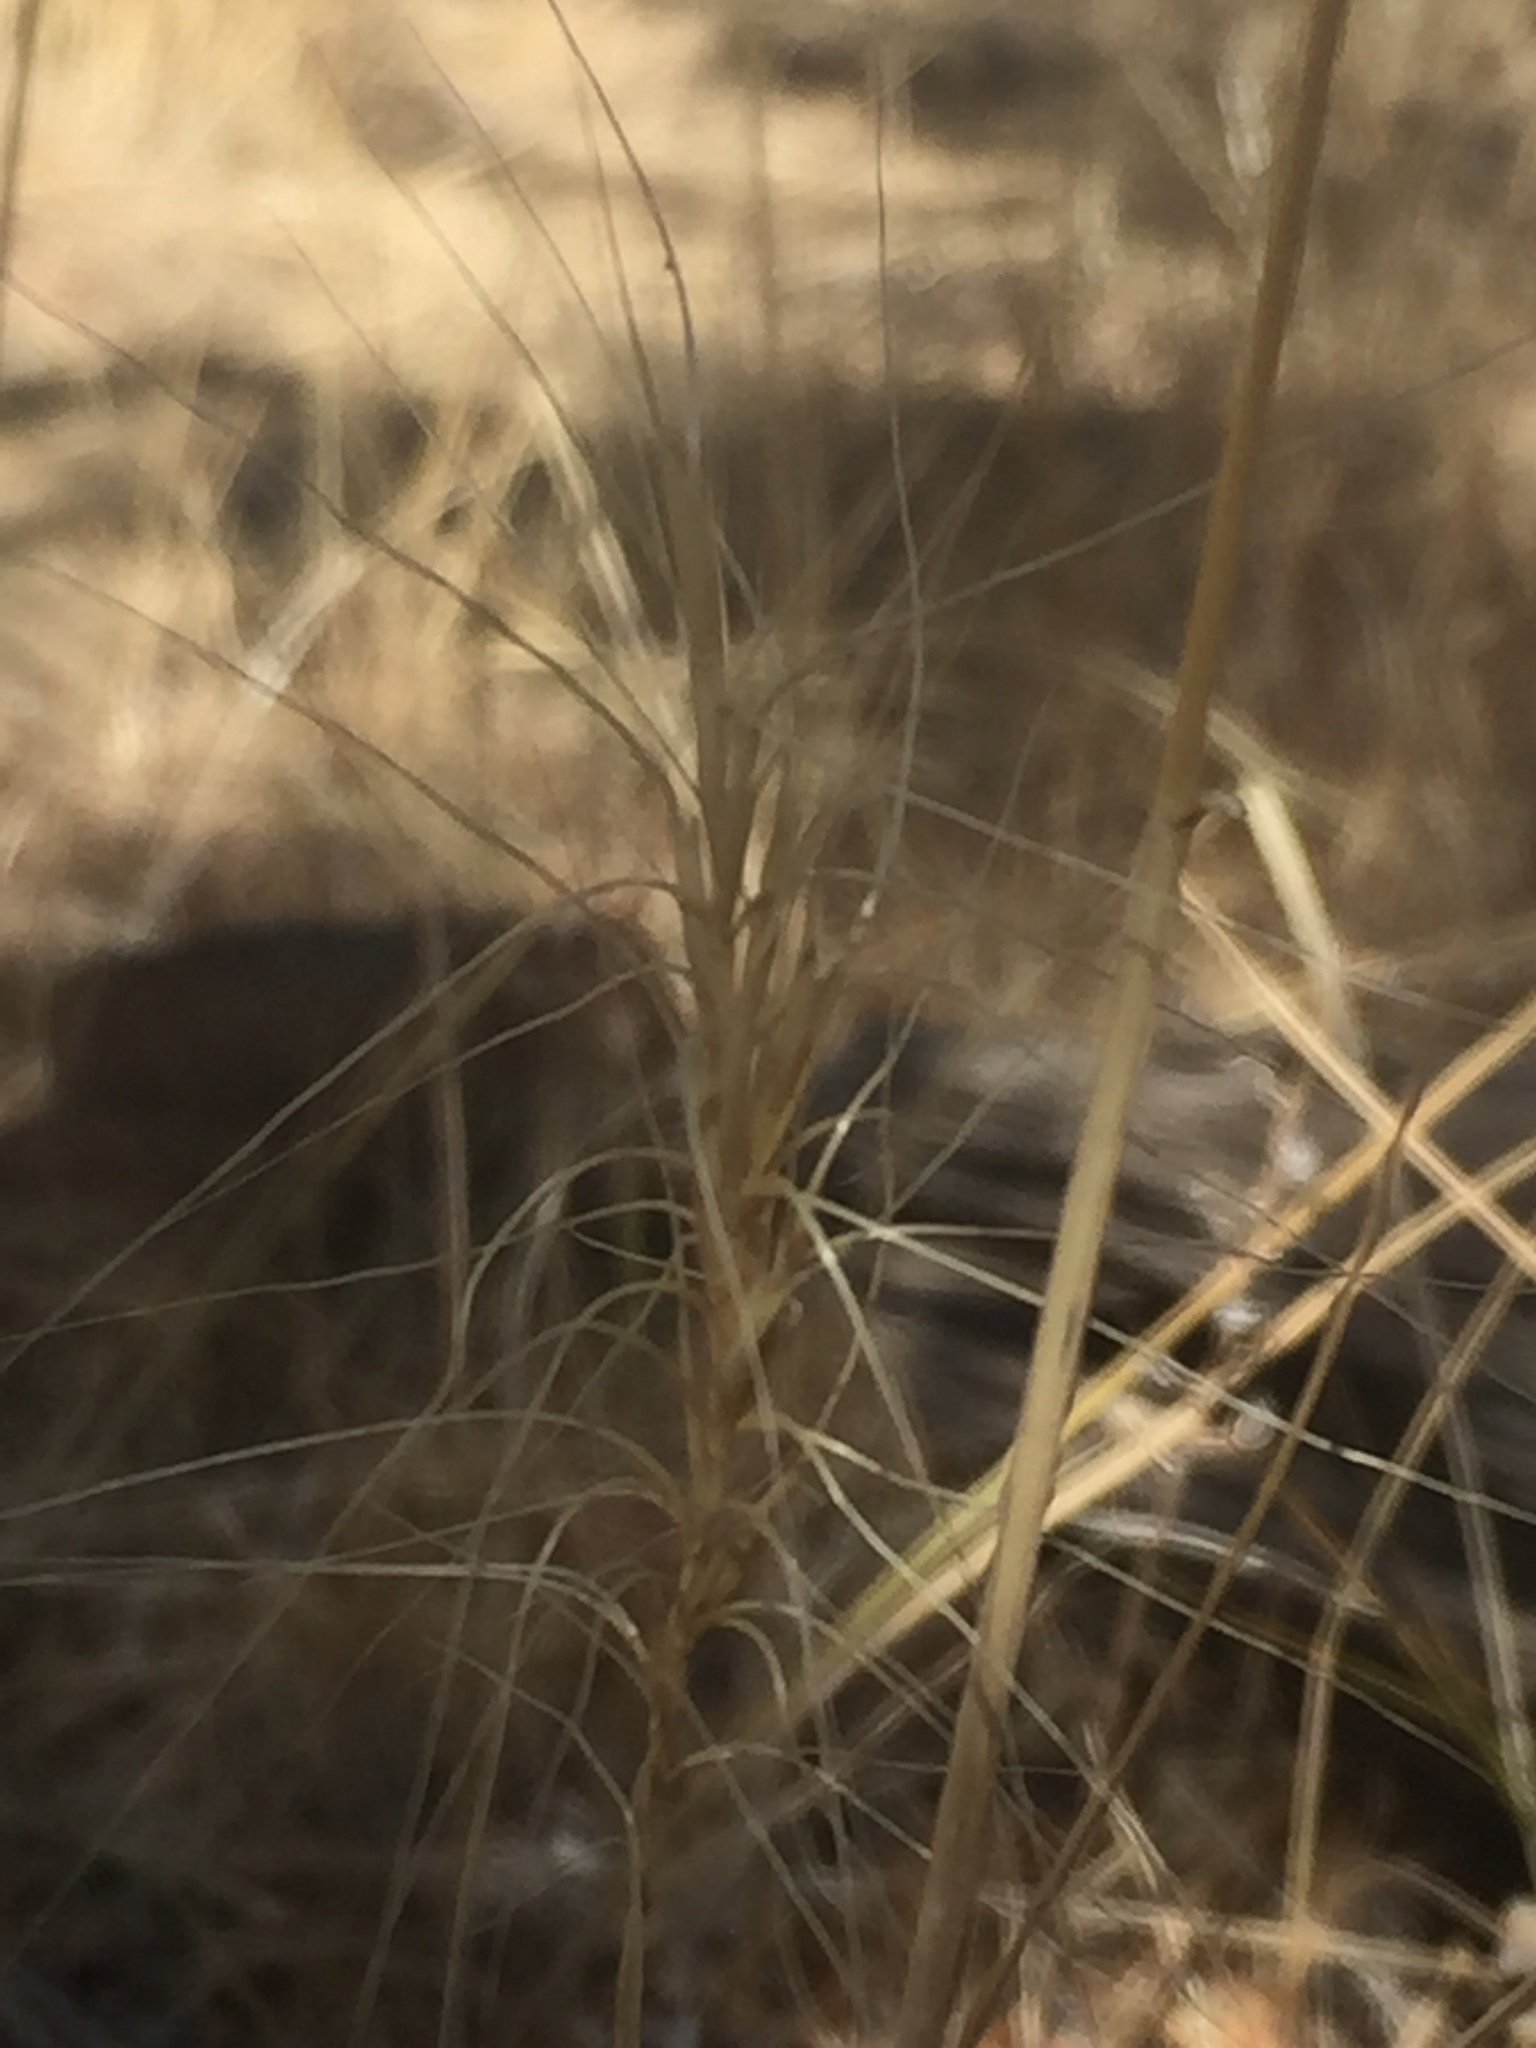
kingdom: Plantae
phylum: Tracheophyta
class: Liliopsida
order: Poales
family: Poaceae
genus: Hordeum
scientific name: Hordeum jubatum
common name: Foxtail barley
